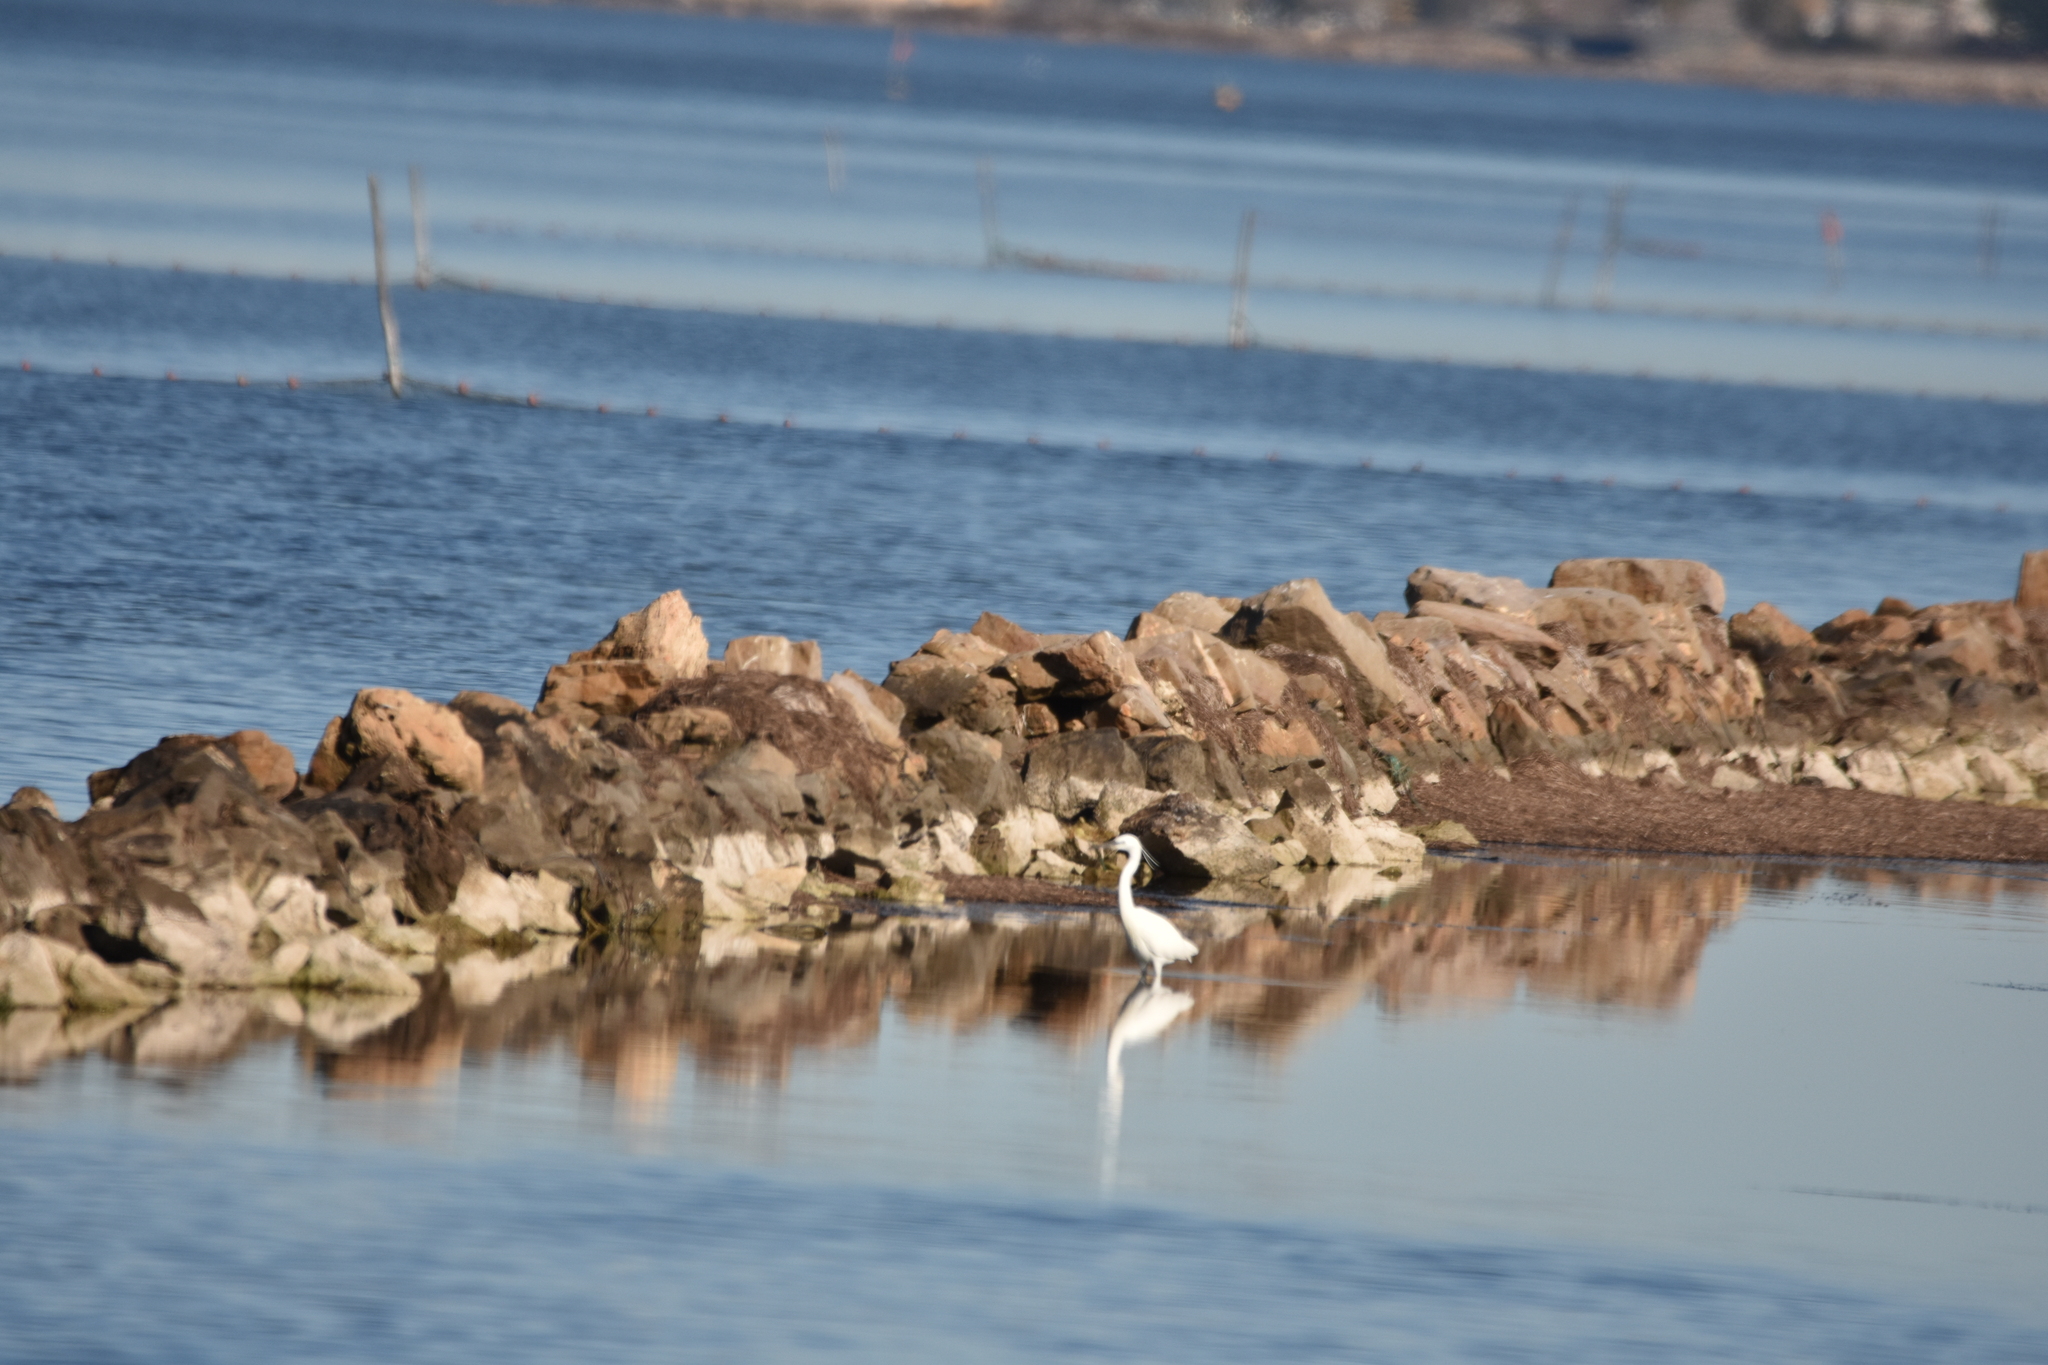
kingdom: Animalia
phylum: Chordata
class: Aves
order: Pelecaniformes
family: Ardeidae
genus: Egretta
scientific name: Egretta garzetta
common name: Little egret
